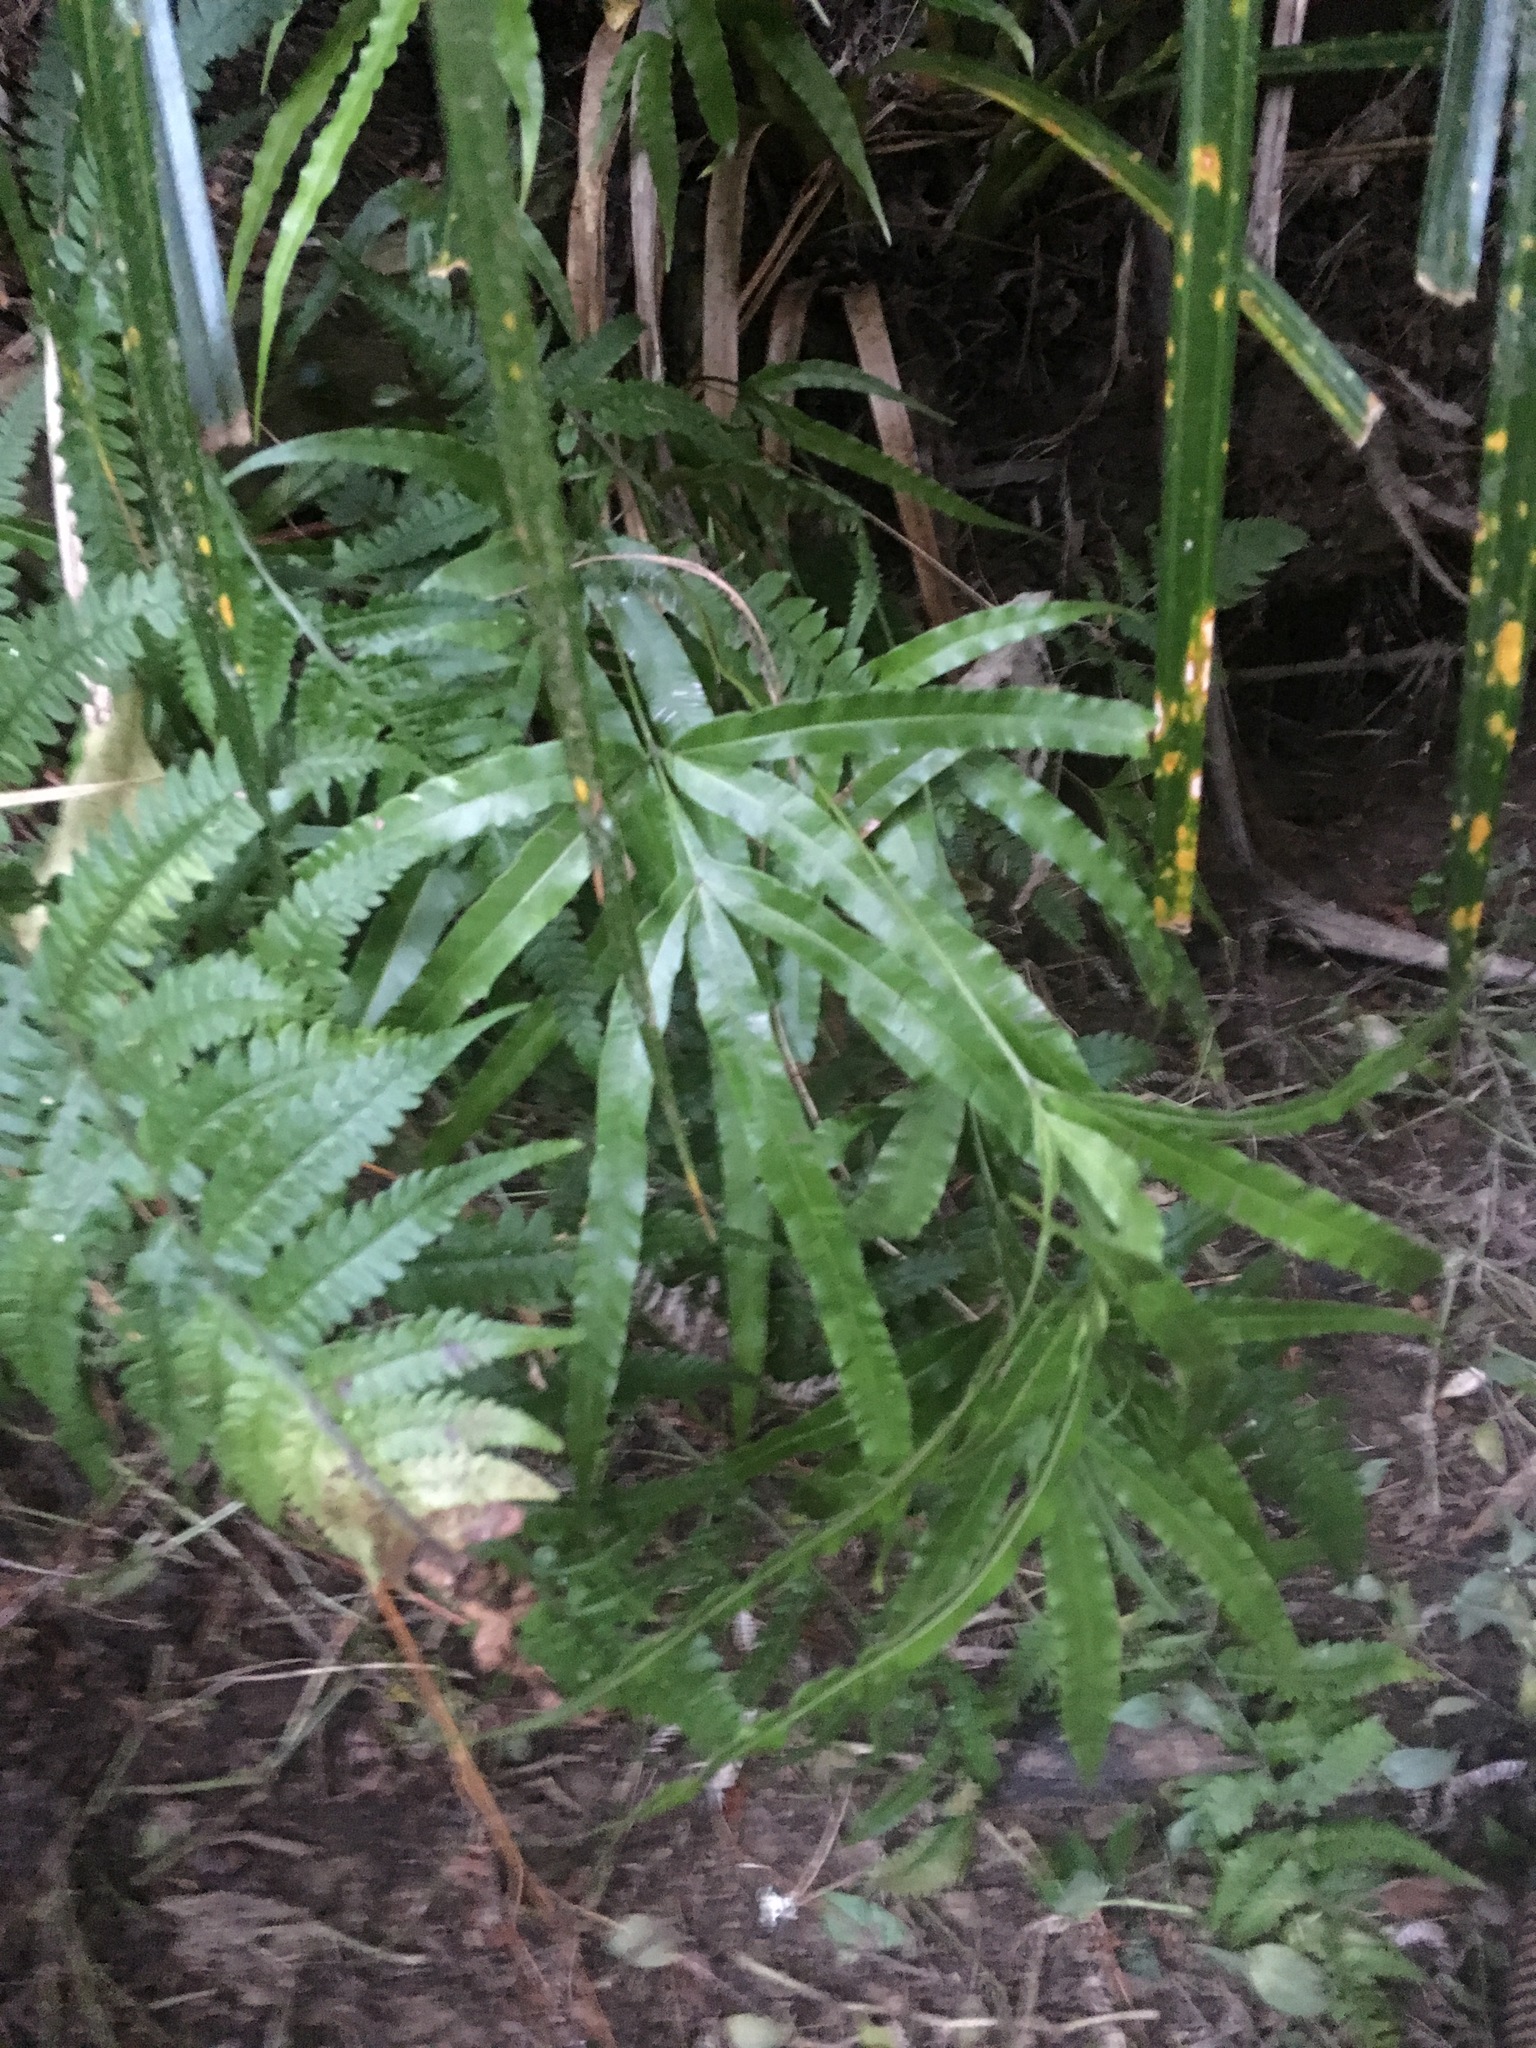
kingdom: Plantae
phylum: Tracheophyta
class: Polypodiopsida
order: Polypodiales
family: Pteridaceae
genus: Pteris
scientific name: Pteris cretica
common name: Ribbon fern
